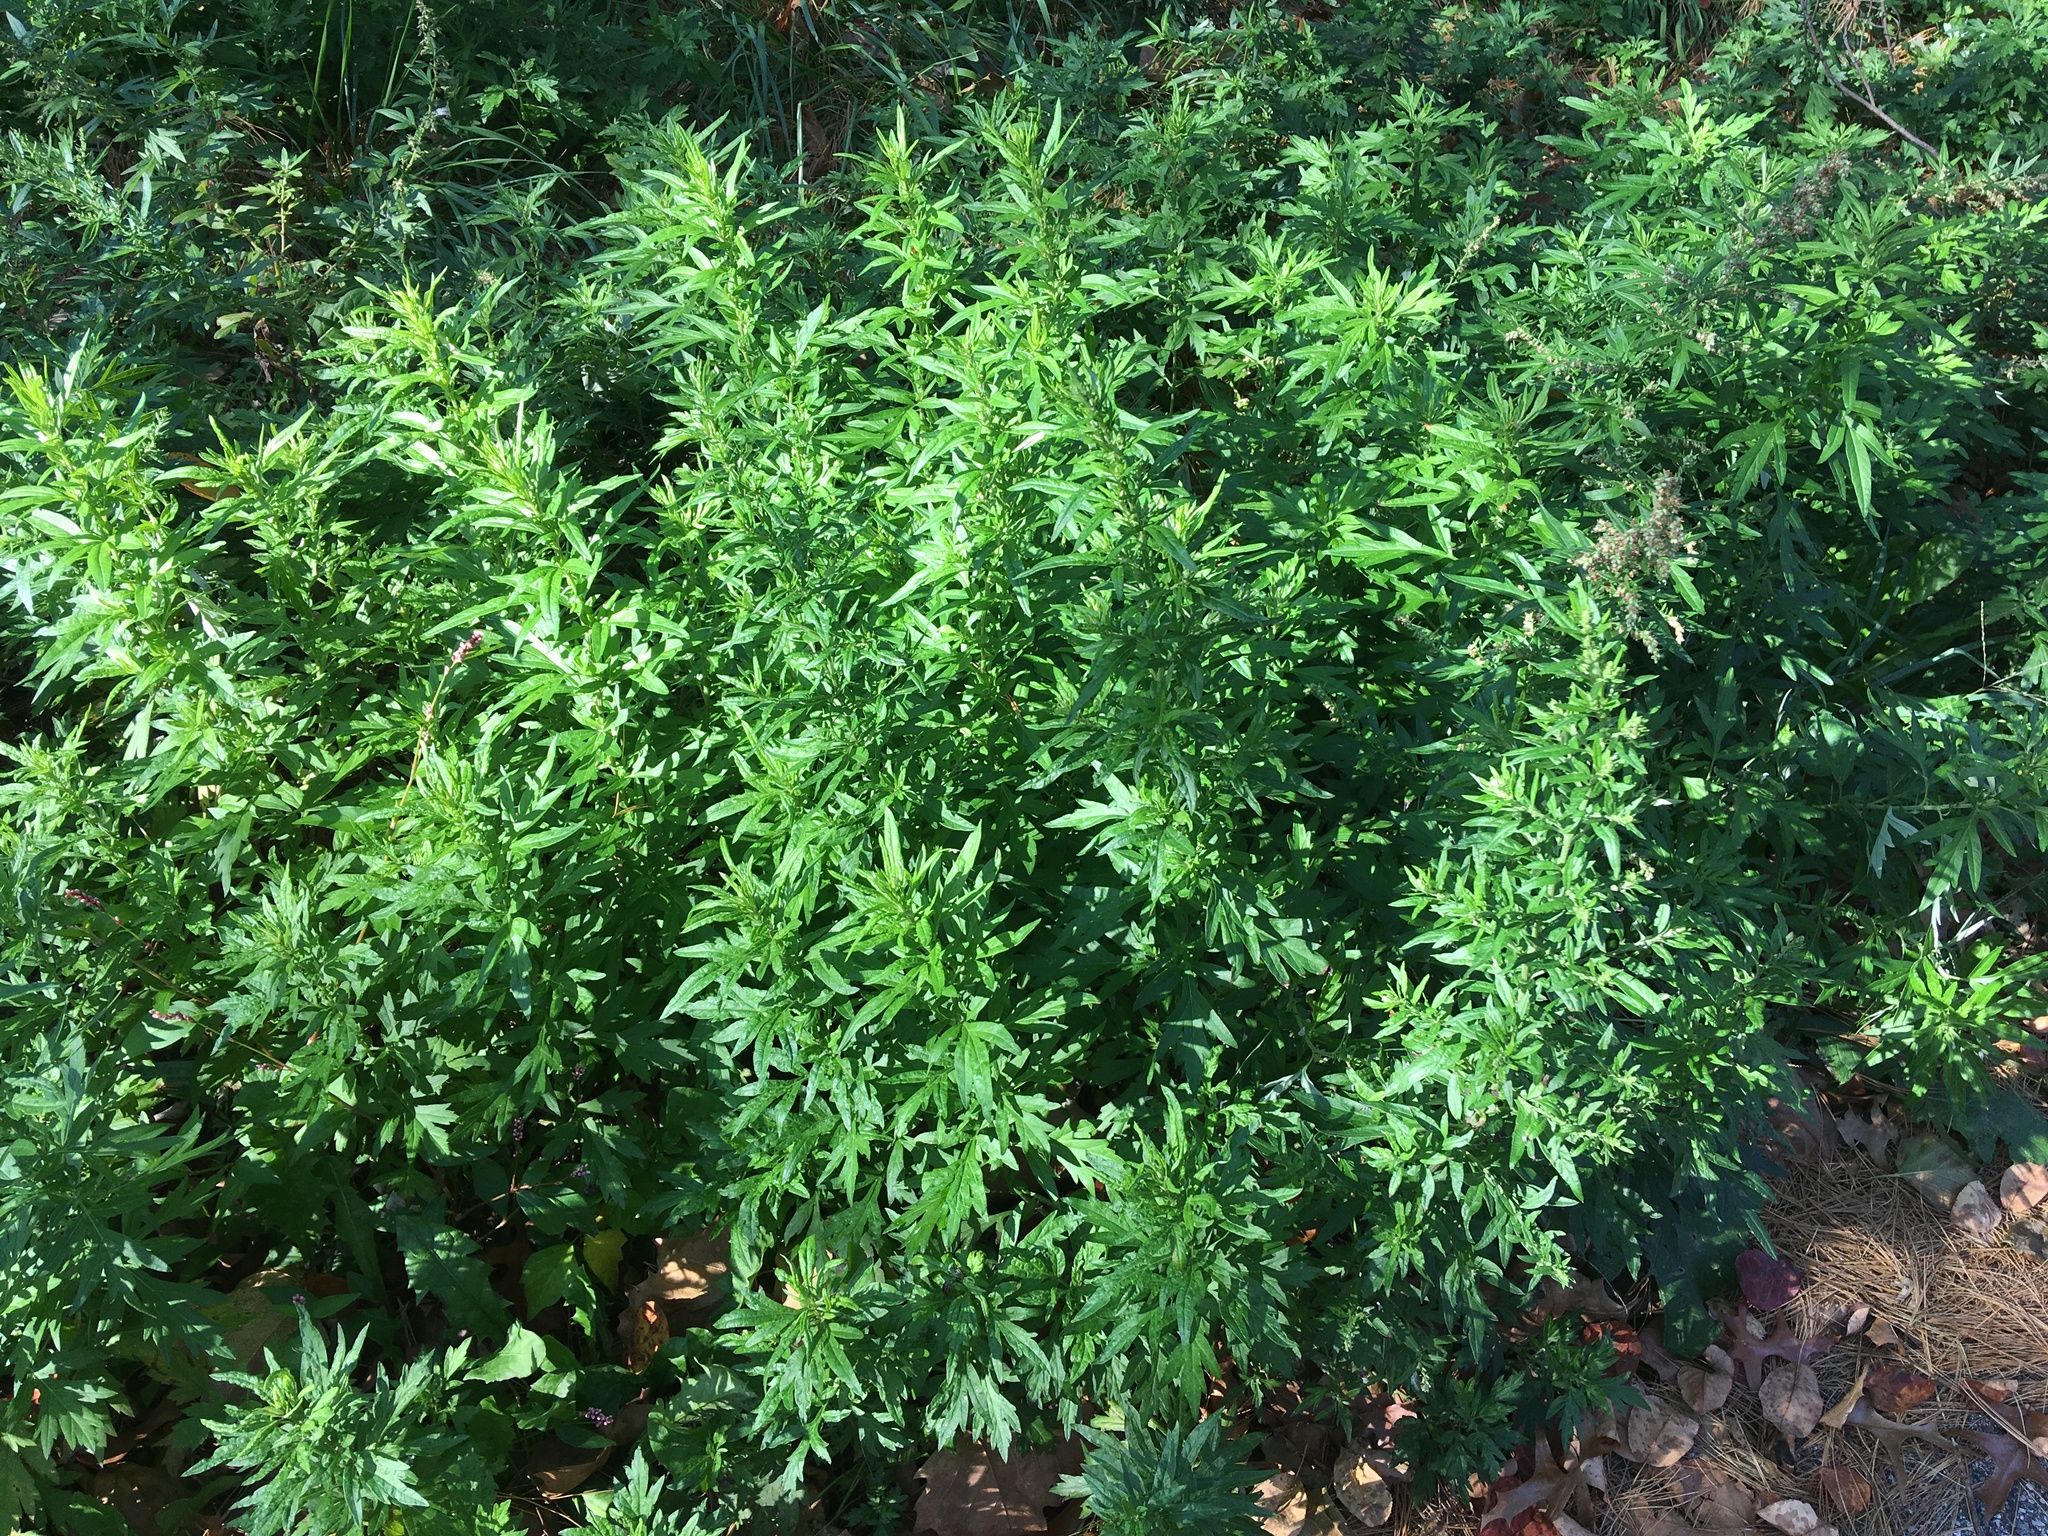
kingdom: Plantae
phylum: Tracheophyta
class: Magnoliopsida
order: Asterales
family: Asteraceae
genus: Artemisia
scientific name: Artemisia vulgaris
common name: Mugwort
